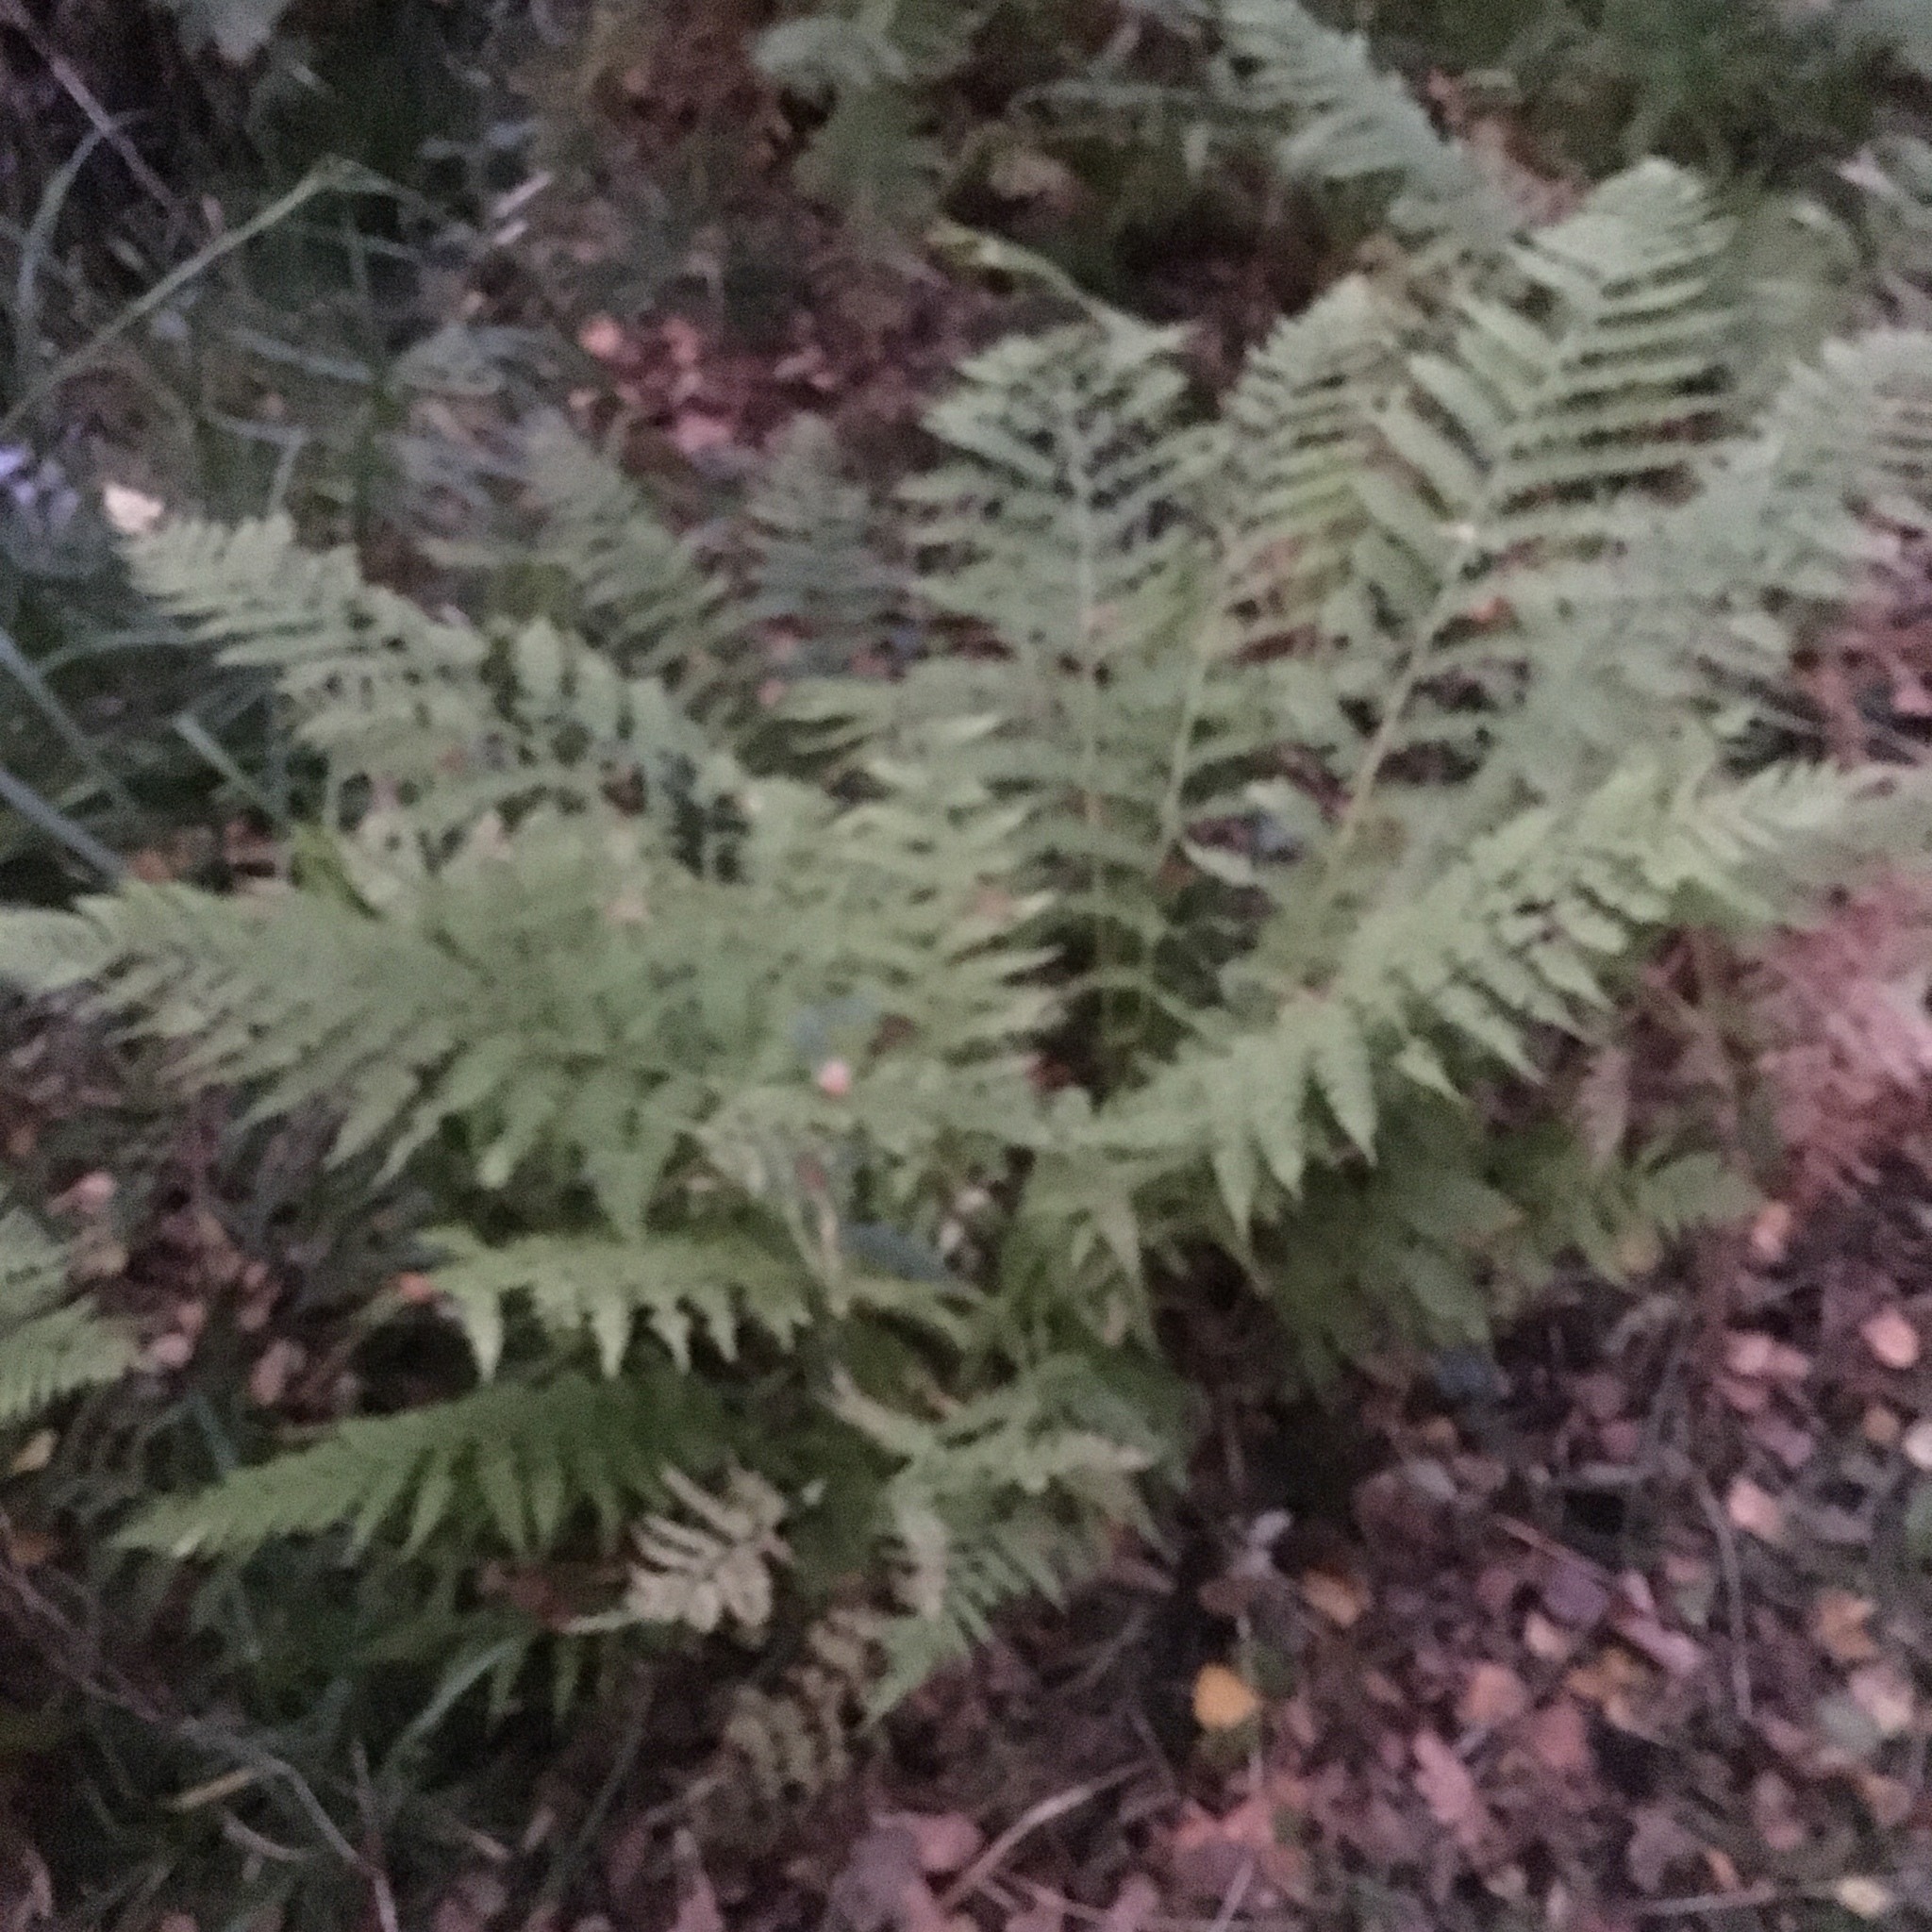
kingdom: Plantae
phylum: Tracheophyta
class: Polypodiopsida
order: Polypodiales
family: Athyriaceae
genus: Athyrium
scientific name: Athyrium filix-femina
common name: Lady fern
